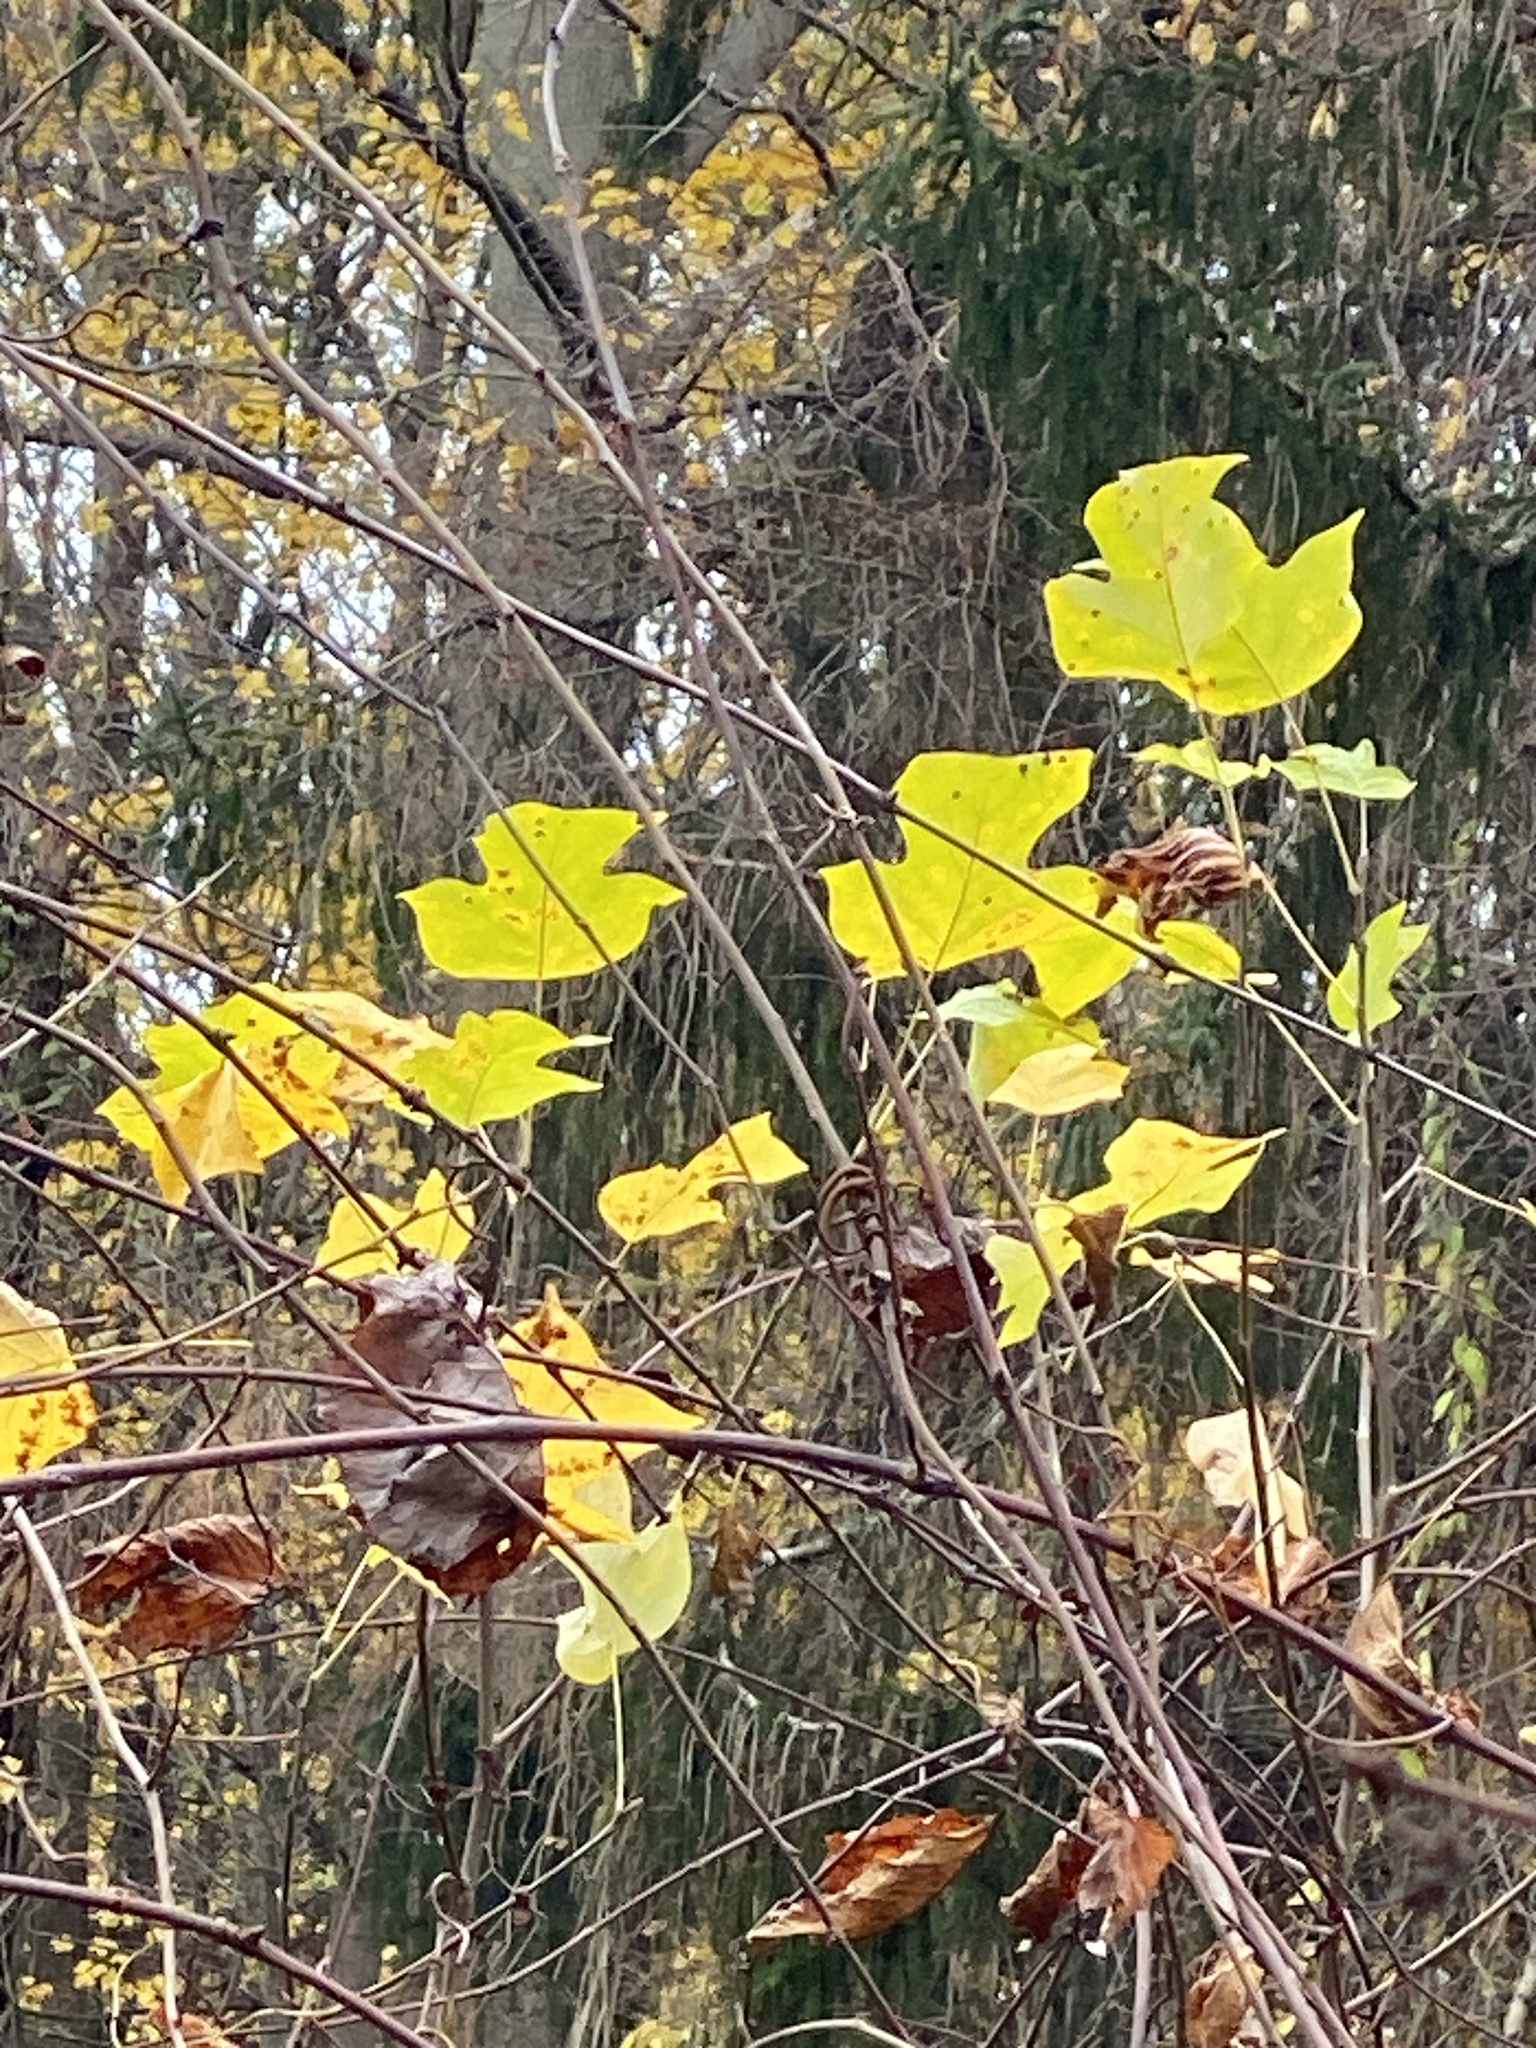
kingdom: Plantae
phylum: Tracheophyta
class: Magnoliopsida
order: Magnoliales
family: Magnoliaceae
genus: Liriodendron
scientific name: Liriodendron tulipifera
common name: Tulip tree
